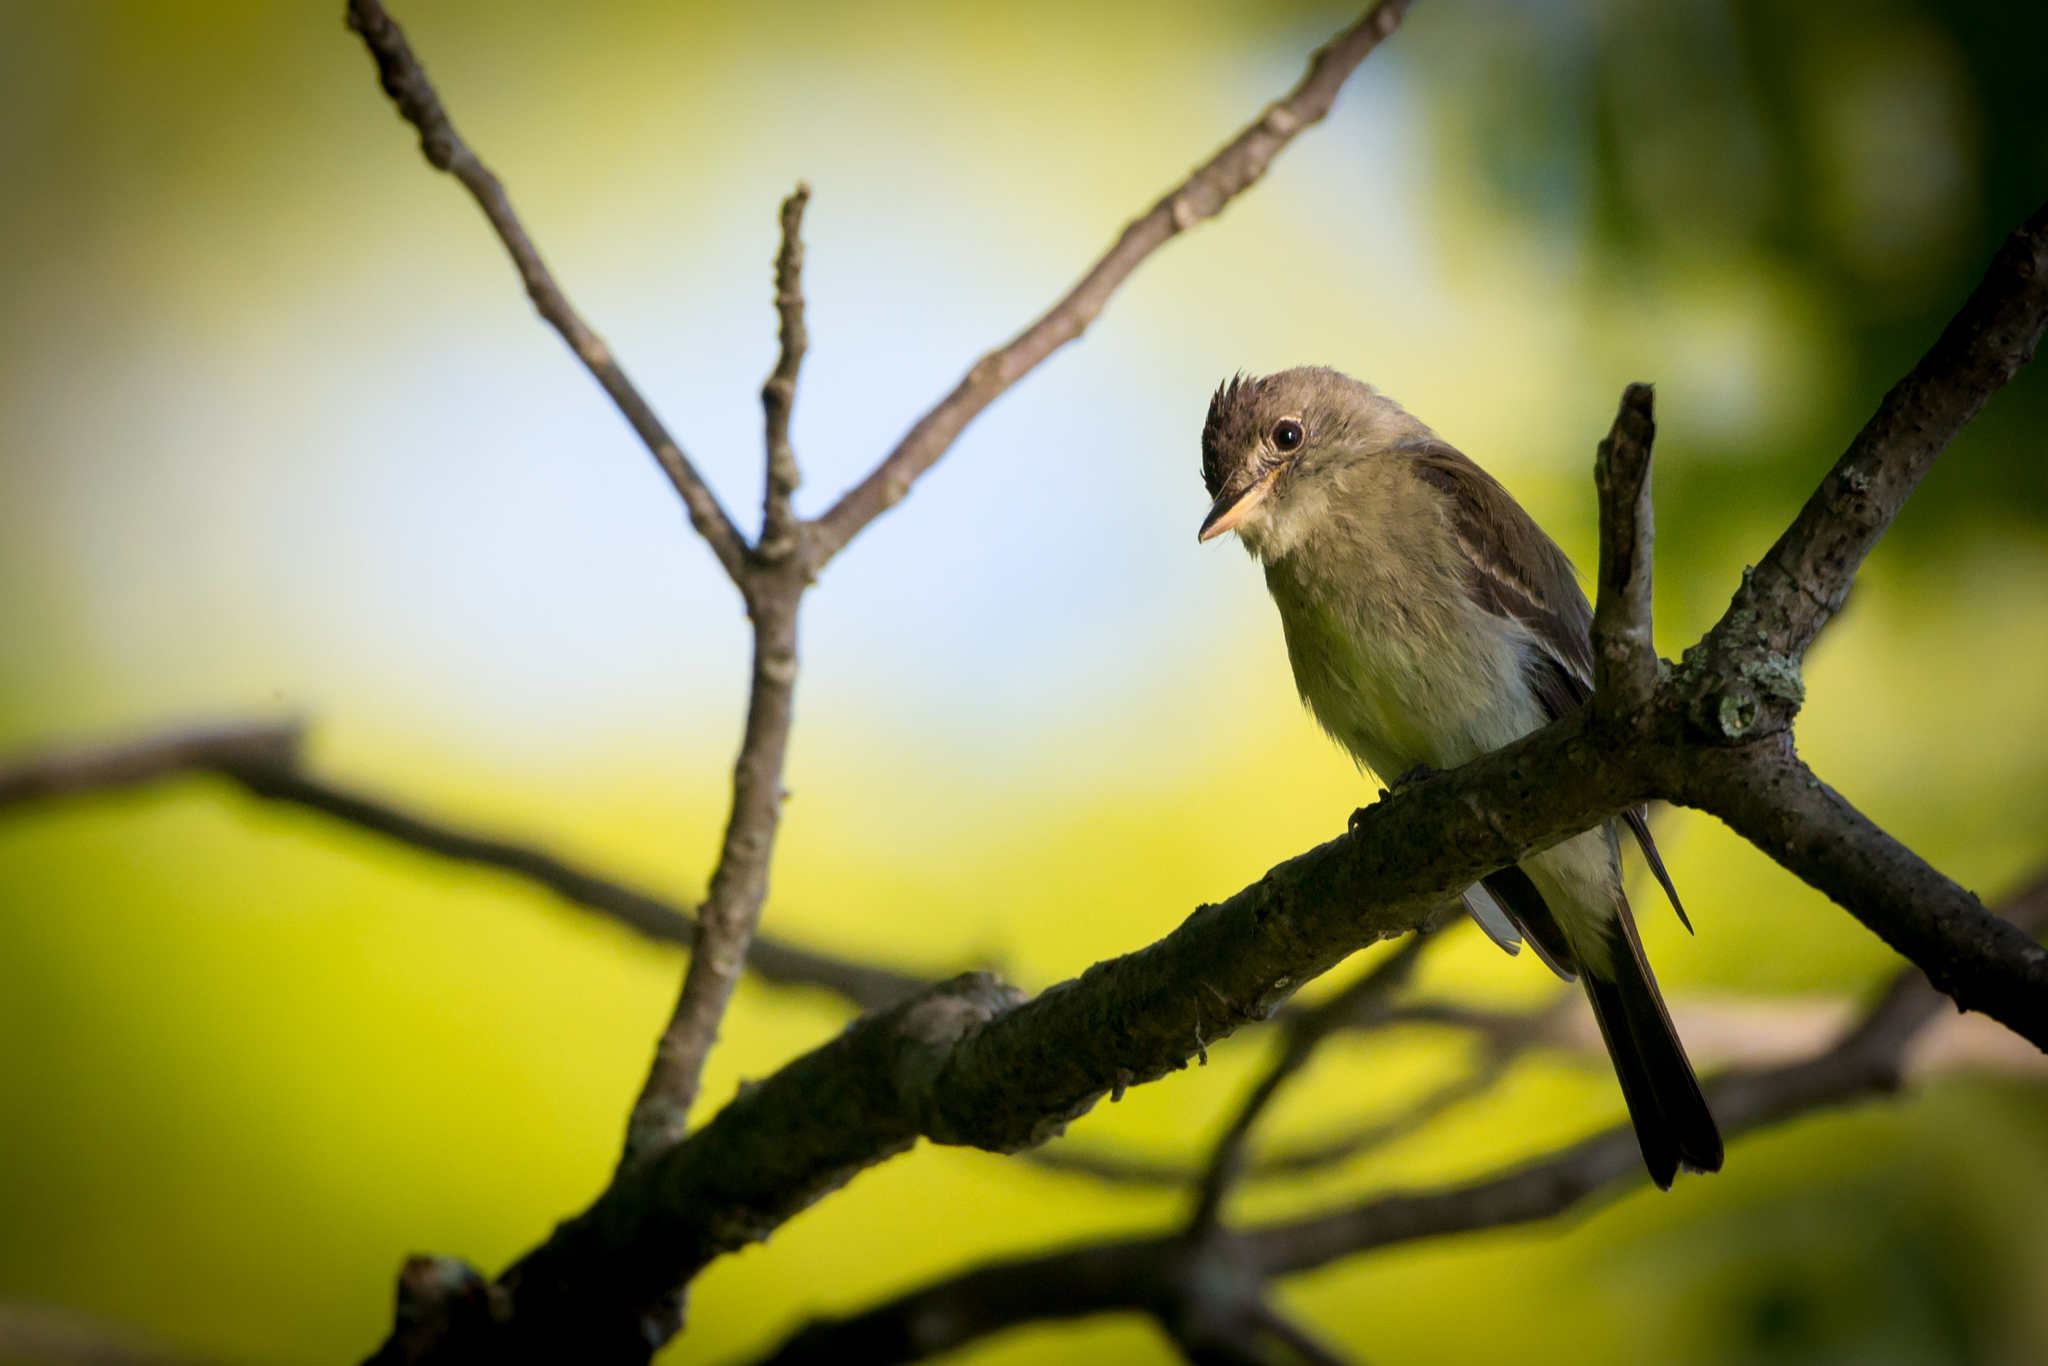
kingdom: Animalia
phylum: Chordata
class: Aves
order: Passeriformes
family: Tyrannidae
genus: Contopus
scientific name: Contopus virens
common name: Eastern wood-pewee
